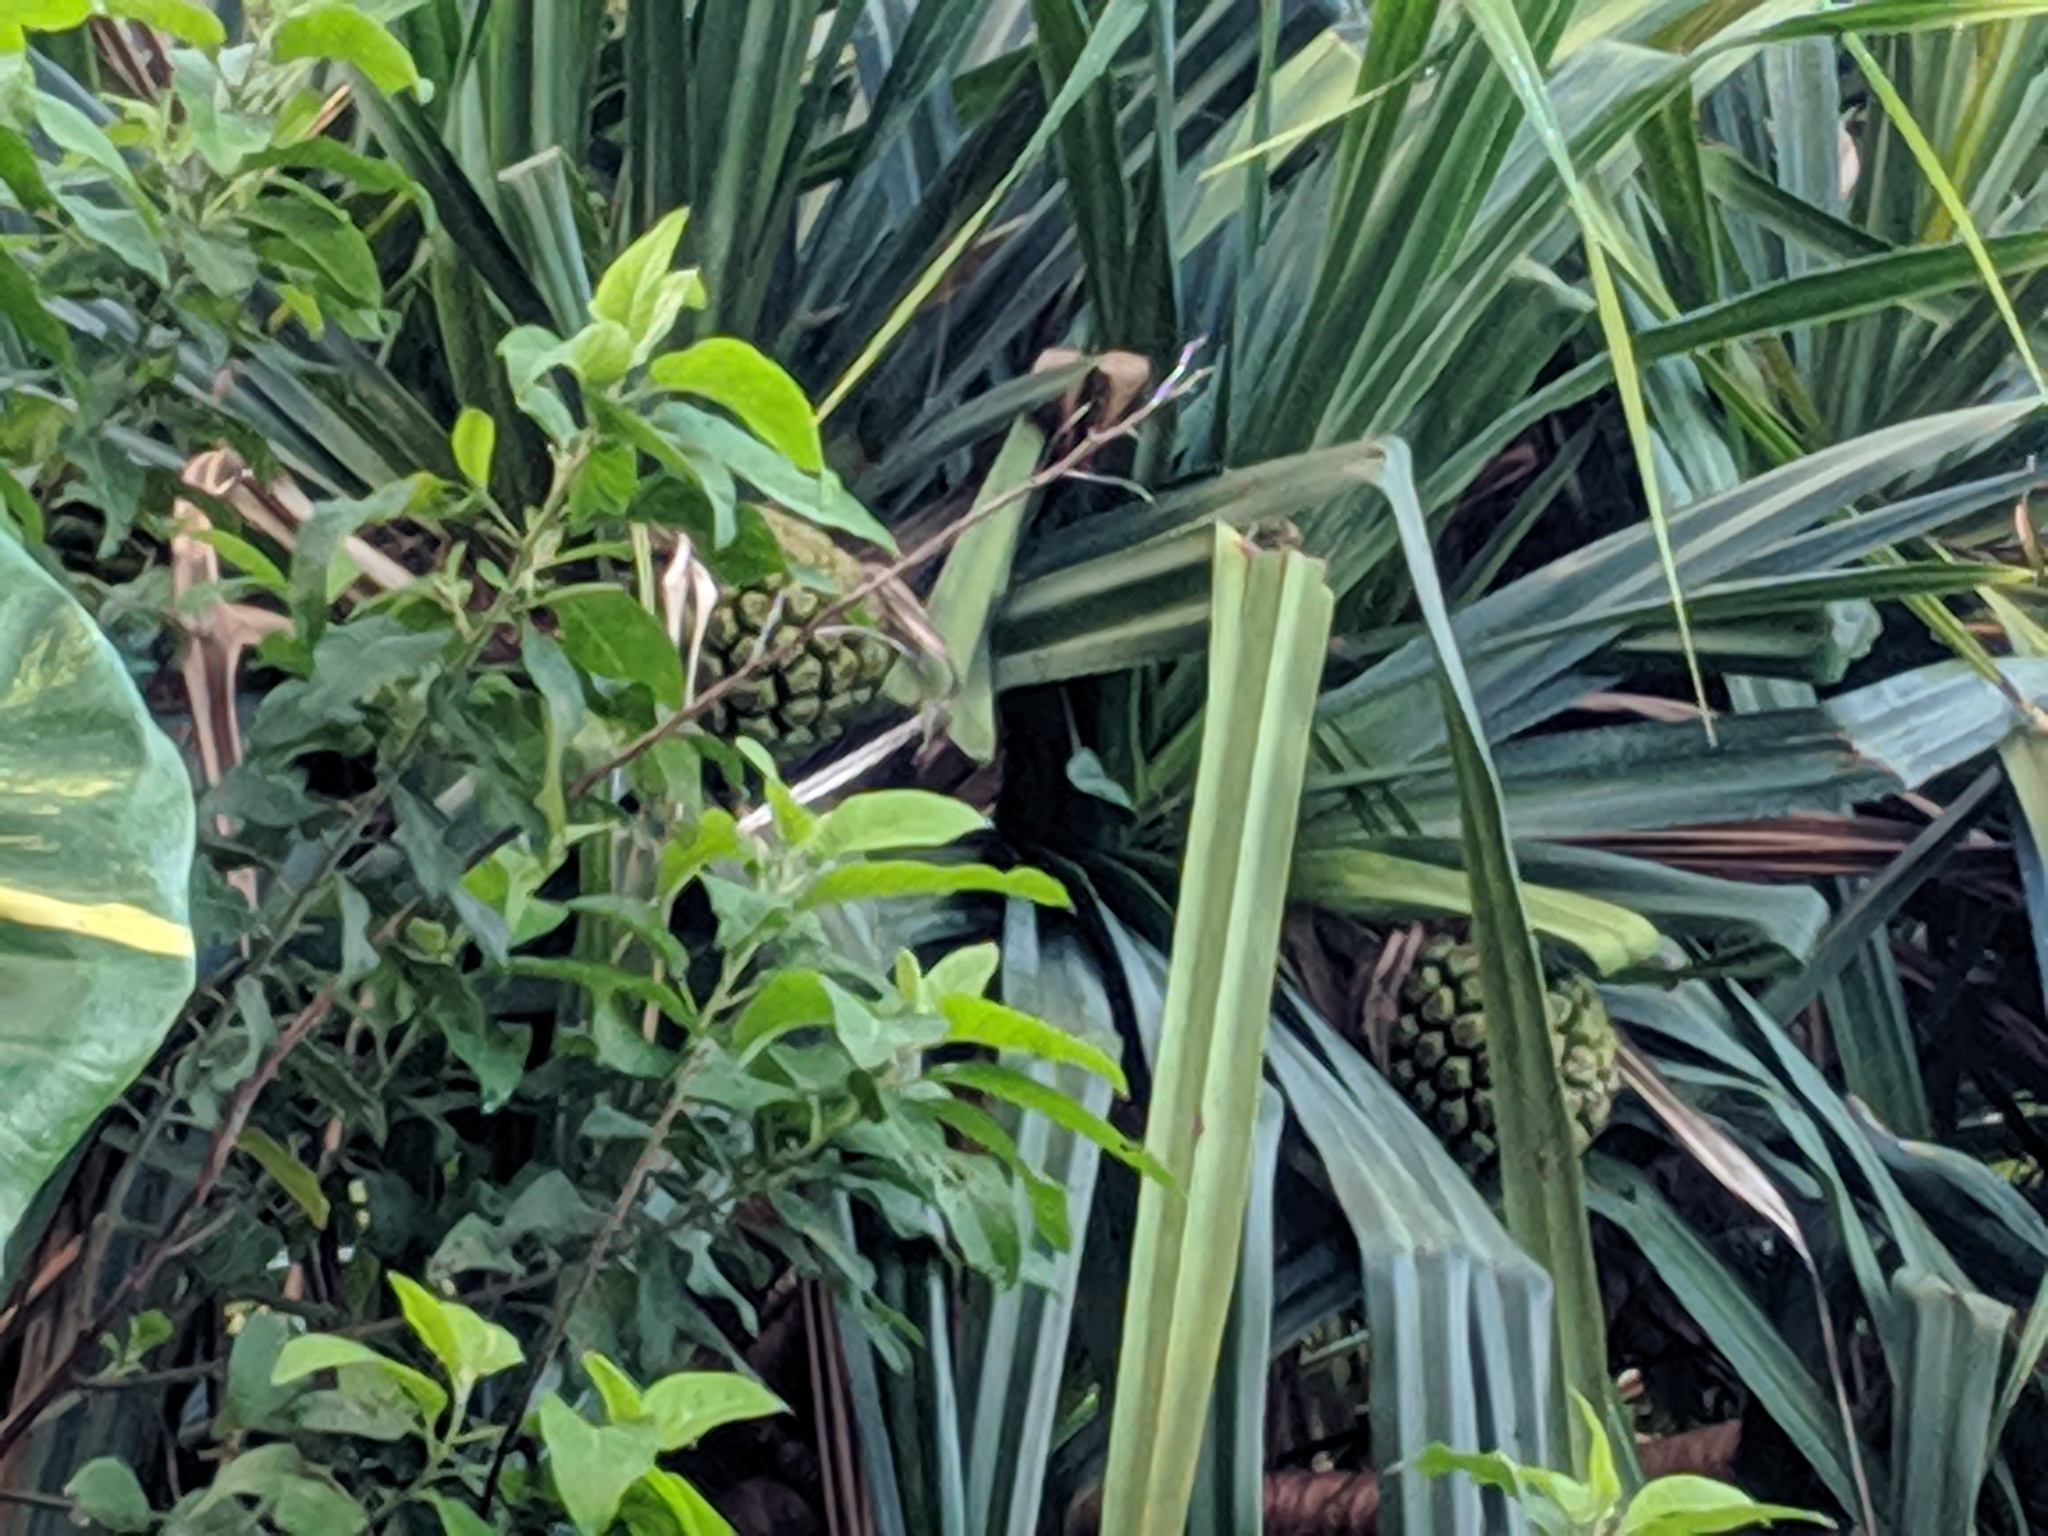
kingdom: Plantae
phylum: Tracheophyta
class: Liliopsida
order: Pandanales
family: Pandanaceae
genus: Pandanus
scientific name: Pandanus tectorius
